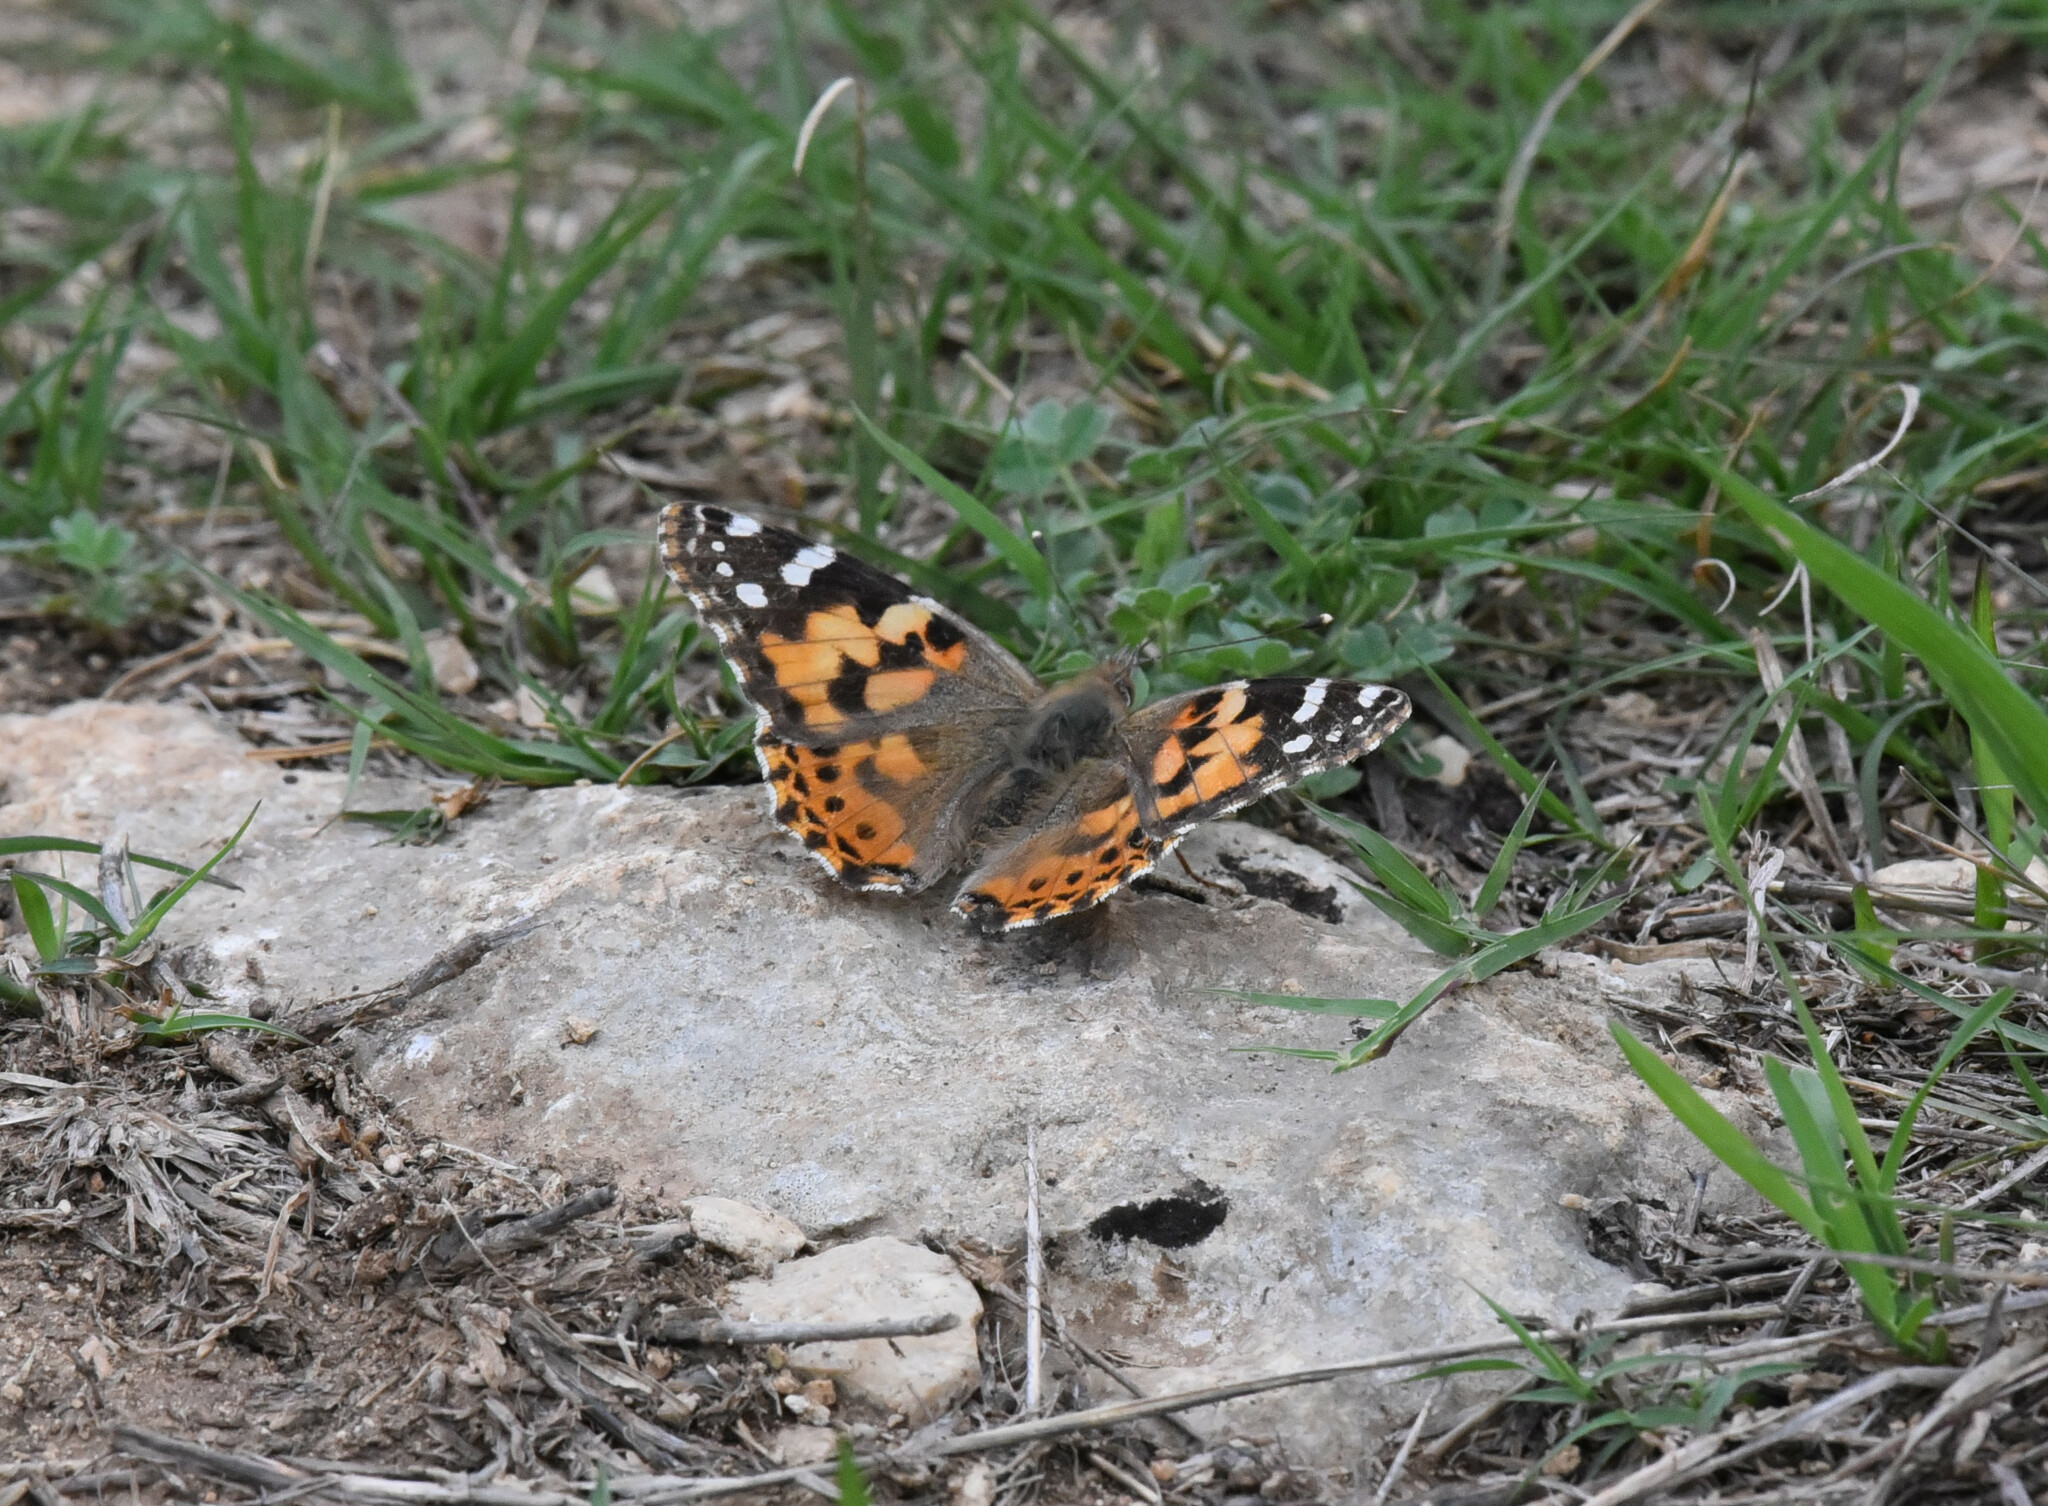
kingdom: Animalia
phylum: Arthropoda
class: Insecta
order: Lepidoptera
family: Nymphalidae
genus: Vanessa
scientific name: Vanessa cardui
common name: Painted lady
